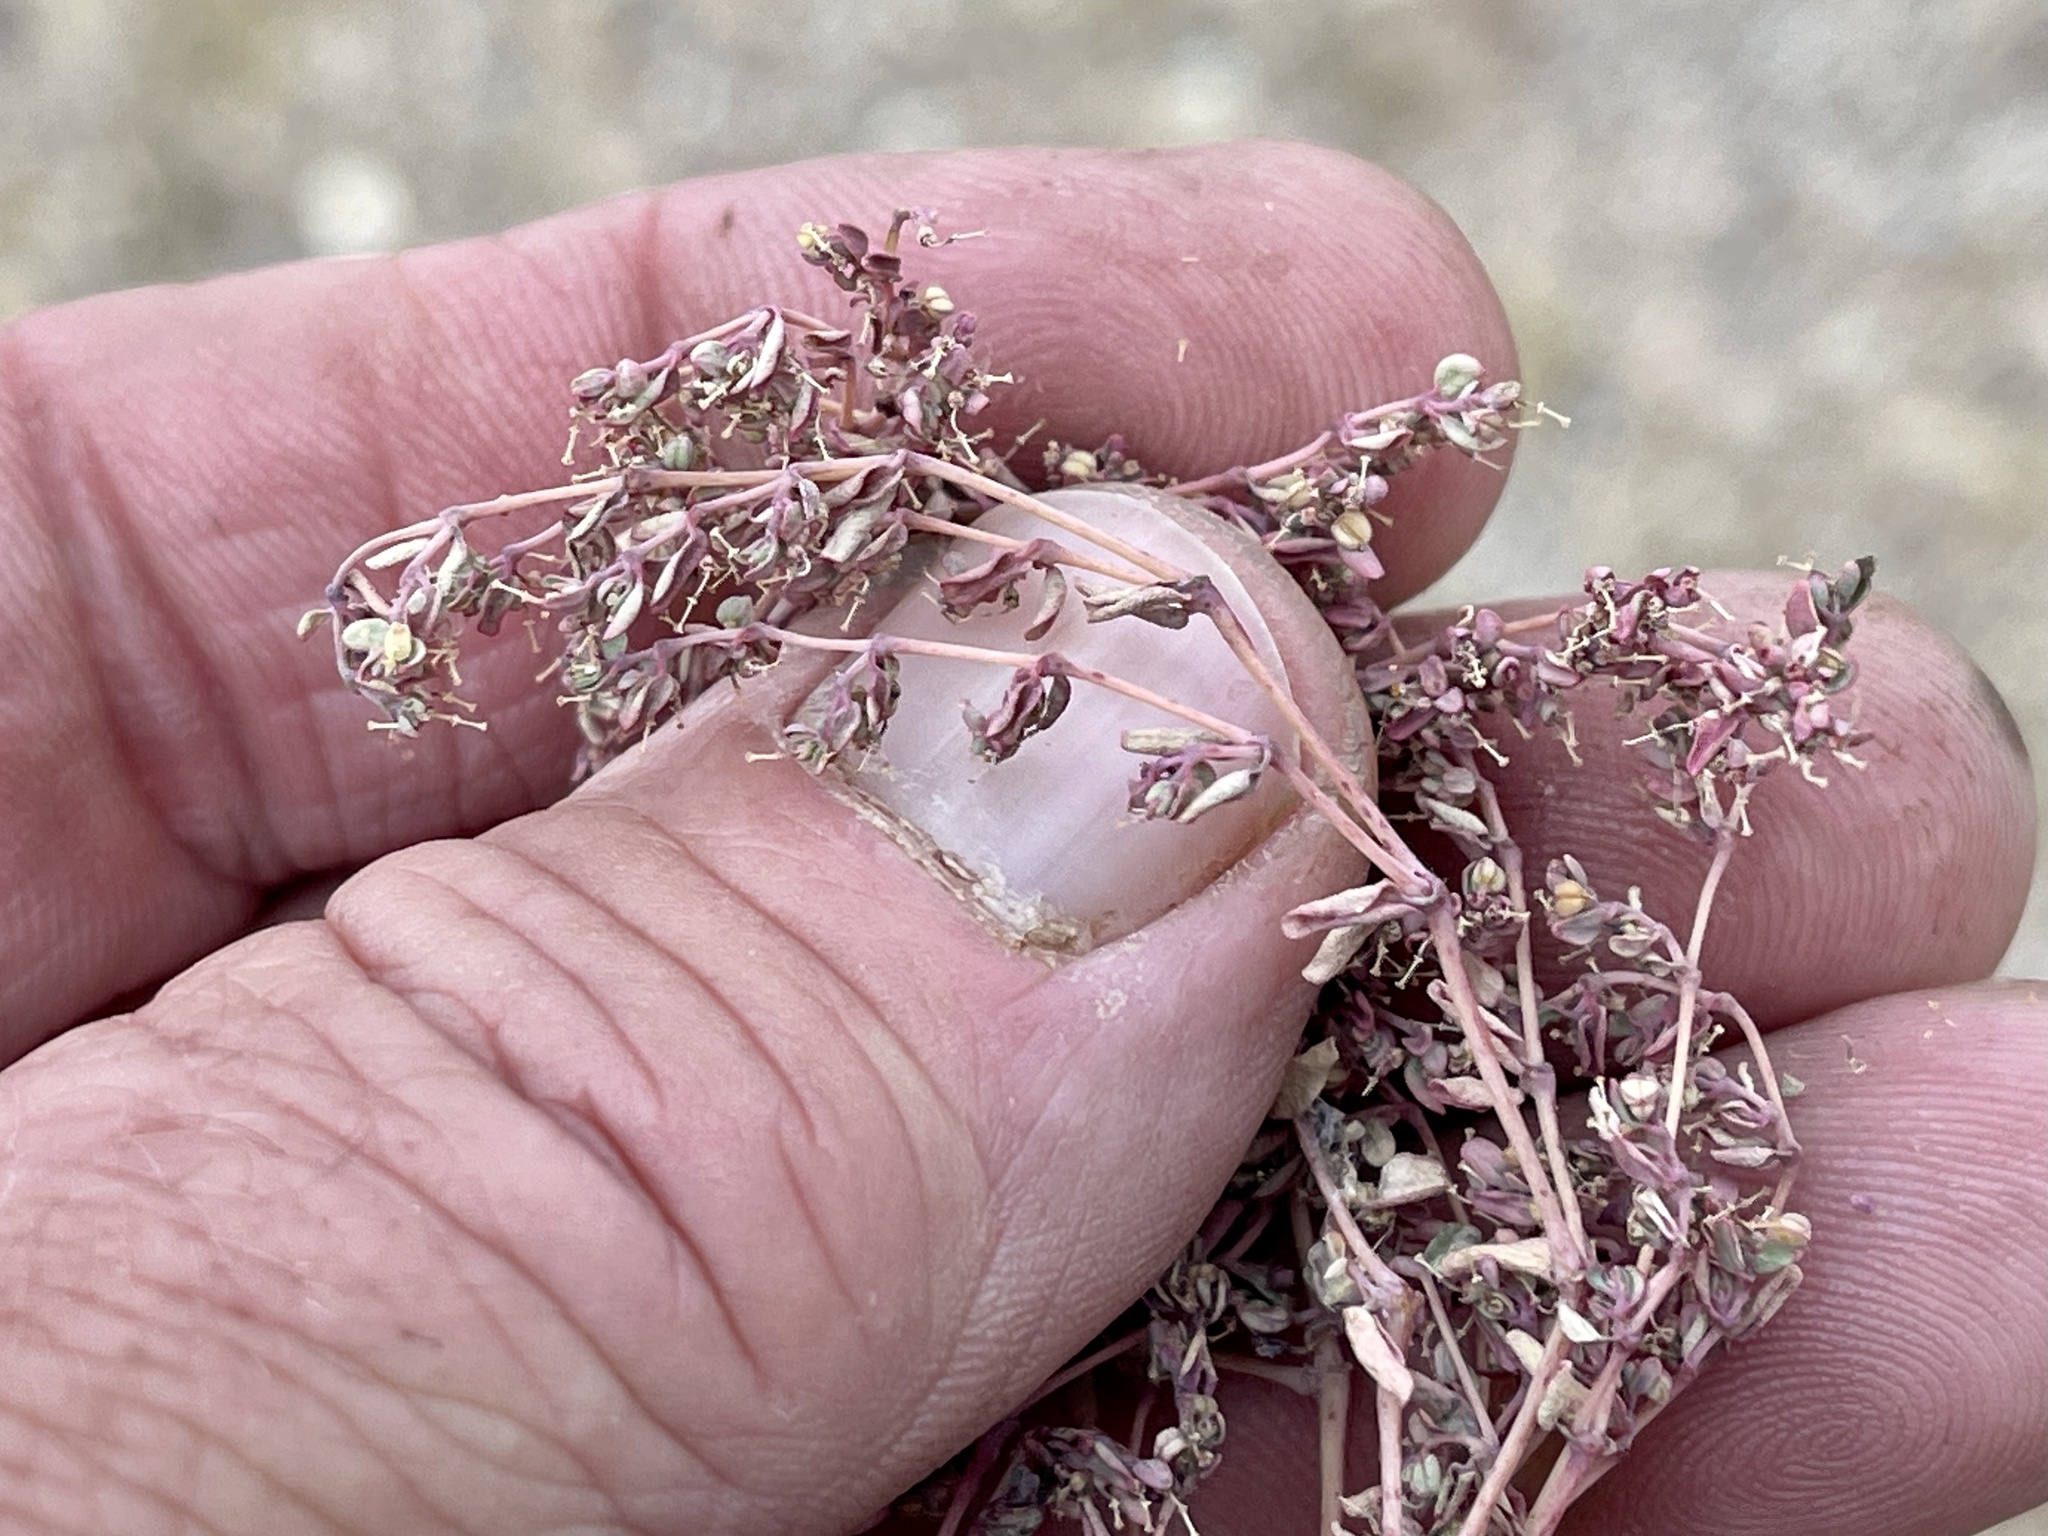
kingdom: Plantae
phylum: Tracheophyta
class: Magnoliopsida
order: Malpighiales
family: Euphorbiaceae
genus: Euphorbia
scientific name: Euphorbia polycarpa
